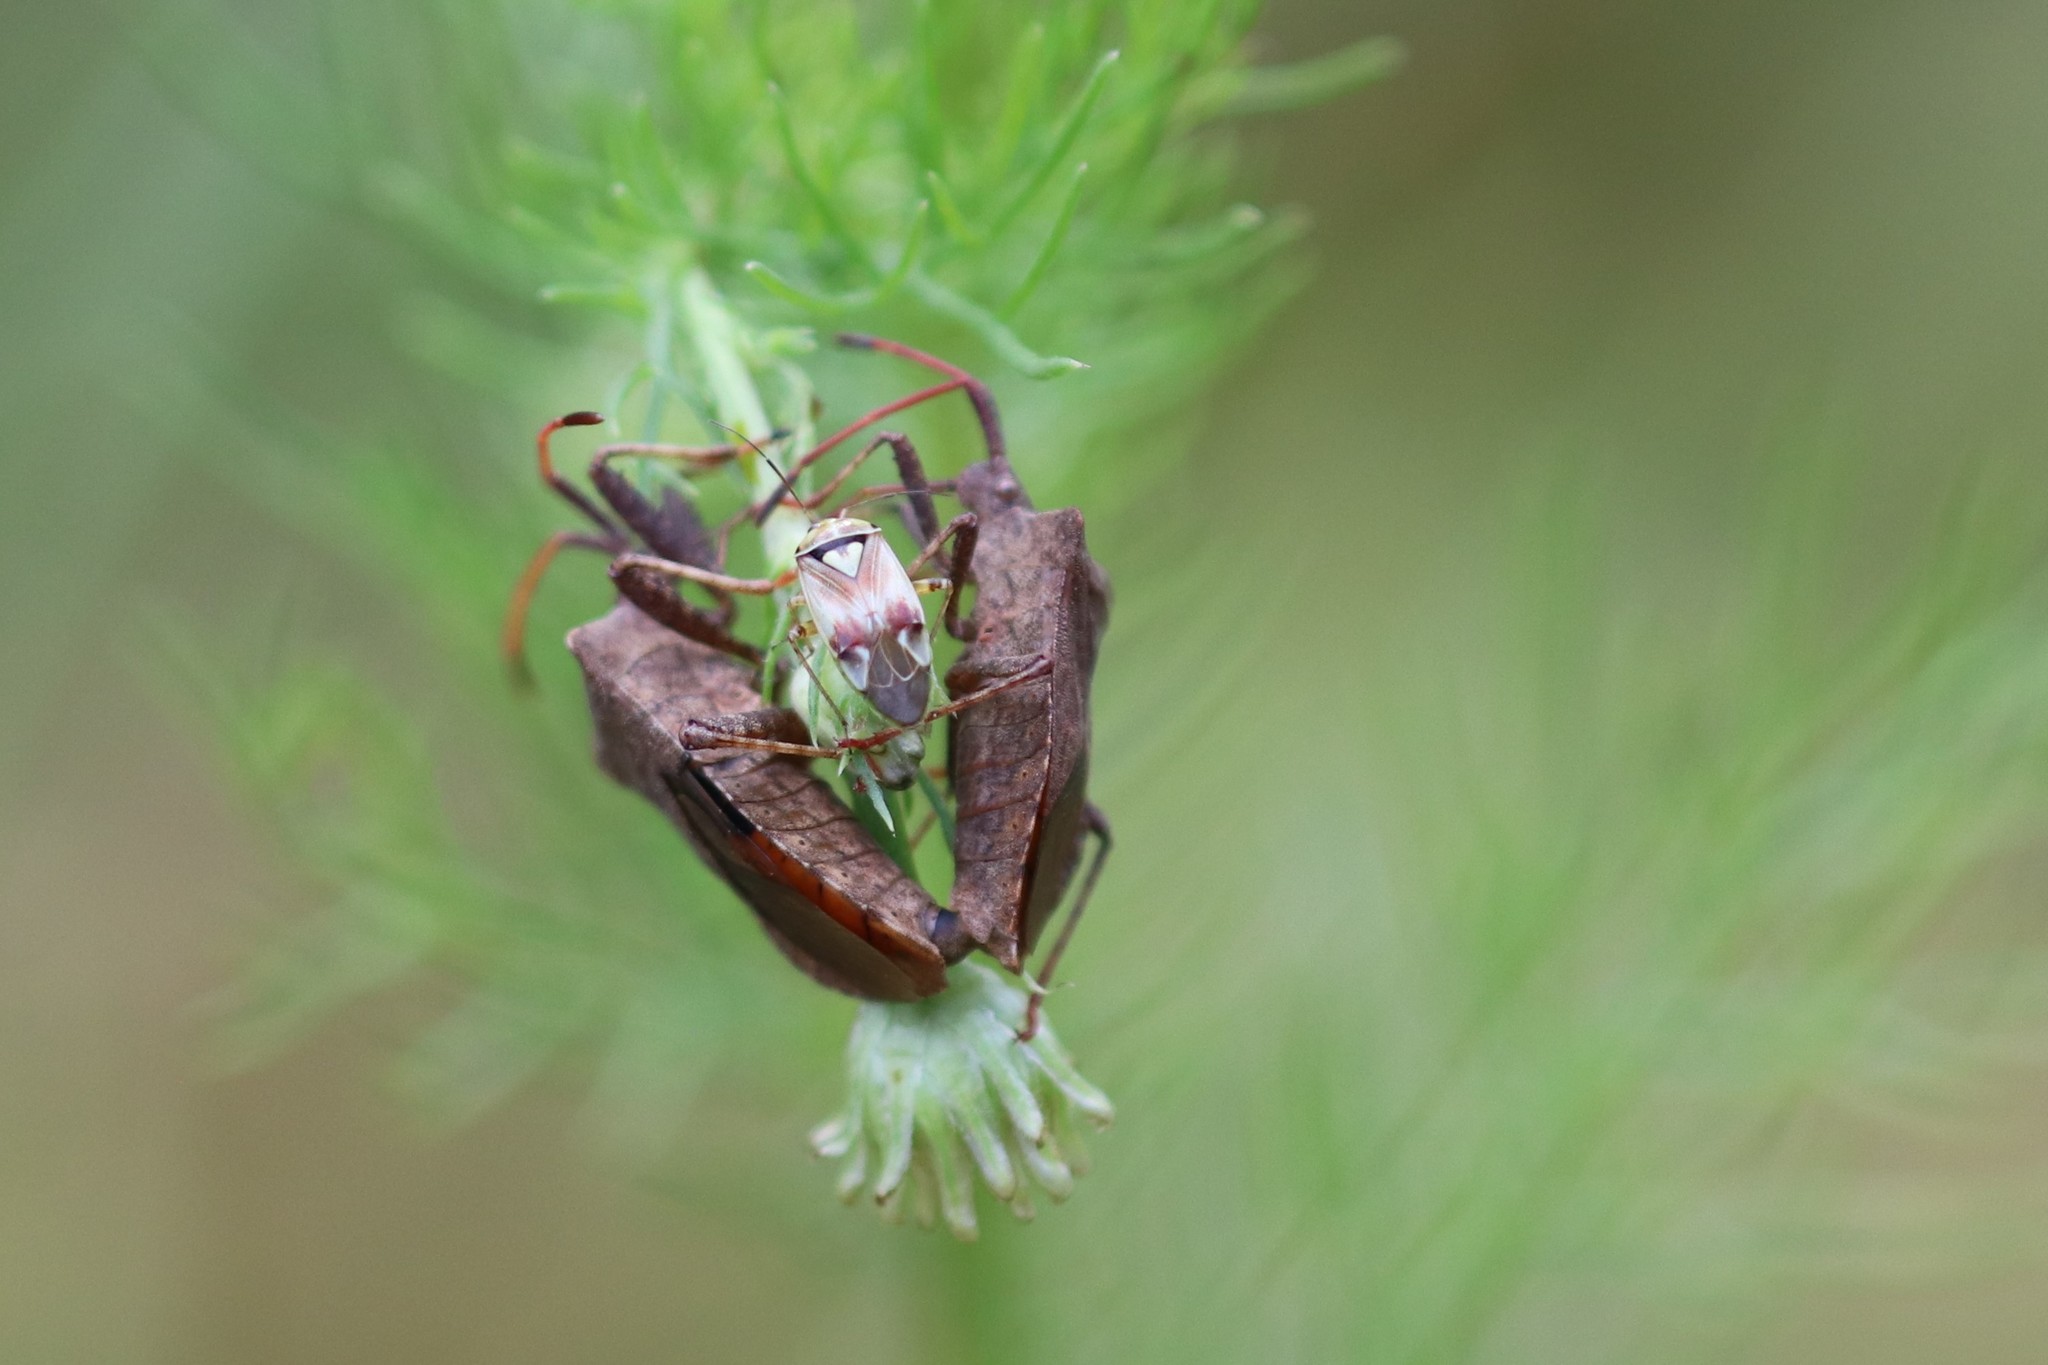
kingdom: Animalia
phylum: Arthropoda
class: Insecta
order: Hemiptera
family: Miridae
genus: Lygus
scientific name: Lygus pratensis
